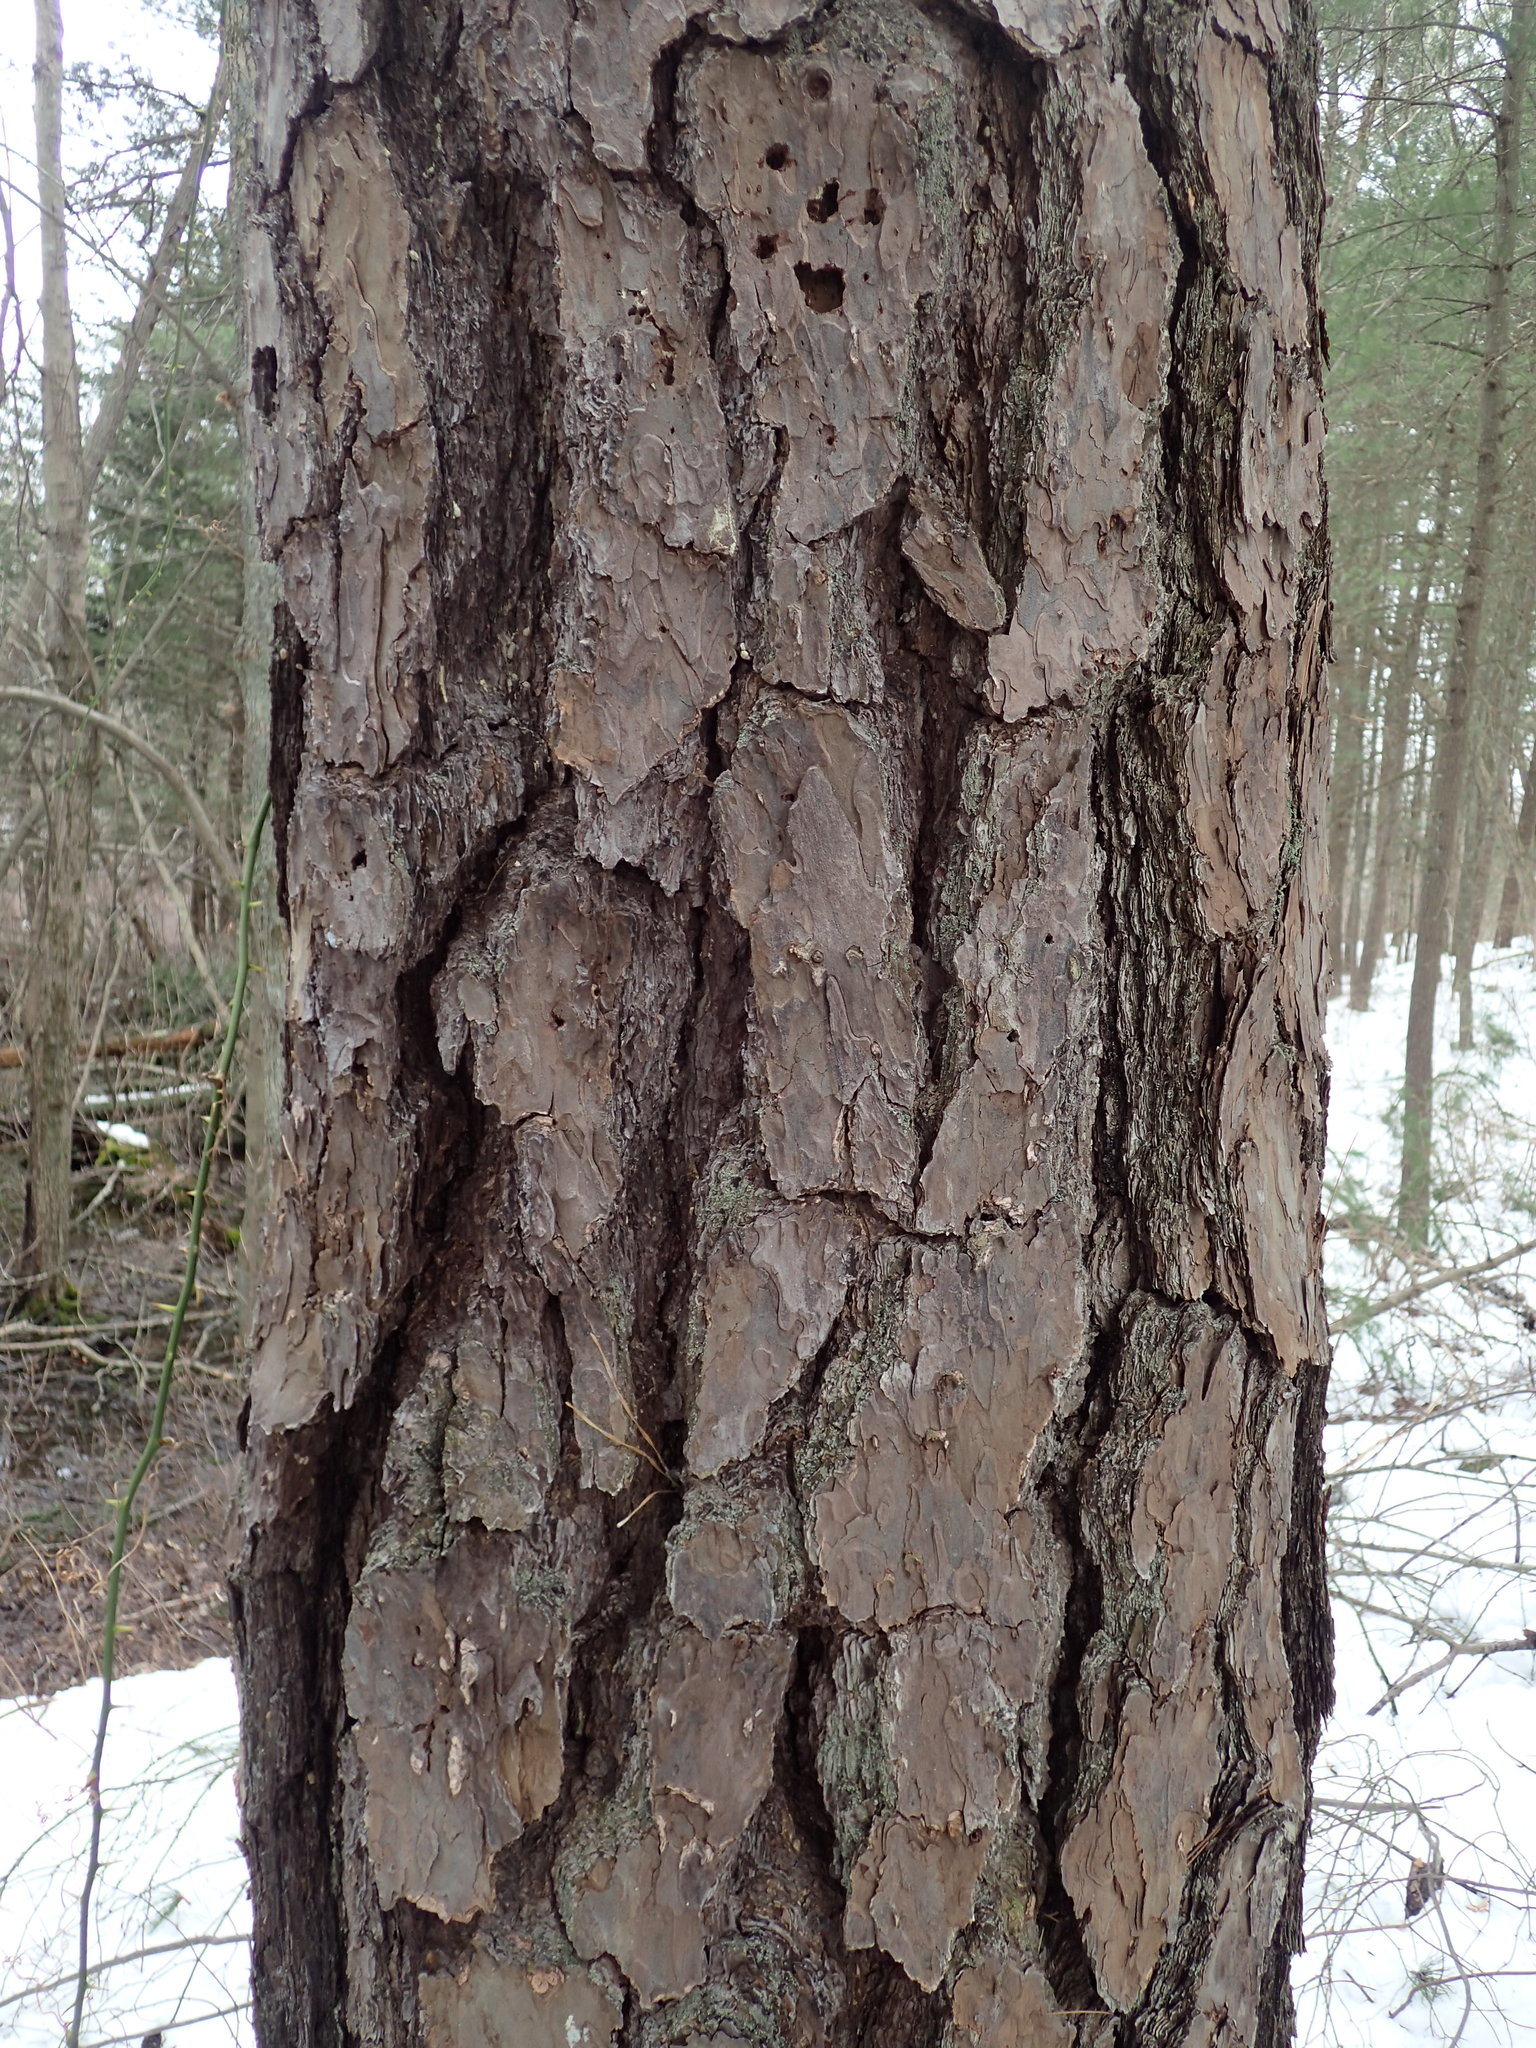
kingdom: Plantae
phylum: Tracheophyta
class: Pinopsida
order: Pinales
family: Pinaceae
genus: Pinus
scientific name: Pinus rigida
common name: Pitch pine
